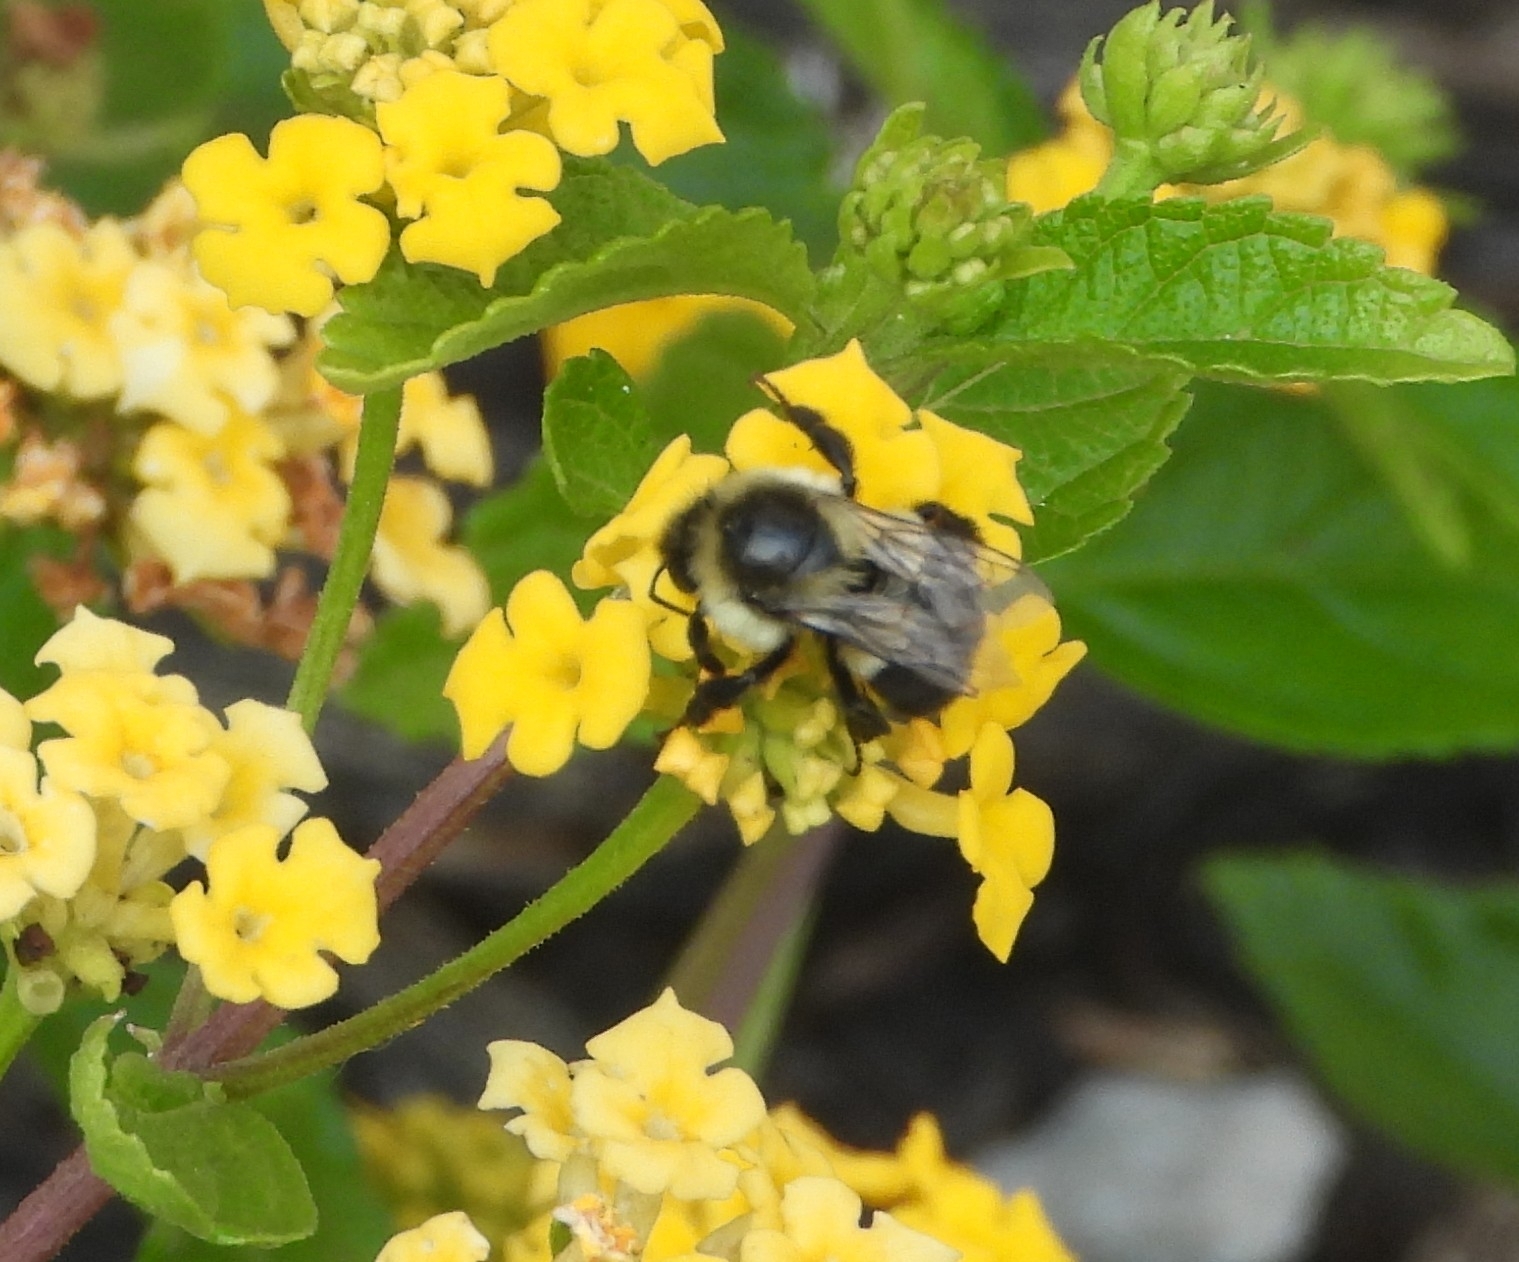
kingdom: Animalia
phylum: Arthropoda
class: Insecta
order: Hymenoptera
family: Apidae
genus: Bombus
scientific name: Bombus impatiens
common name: Common eastern bumble bee
